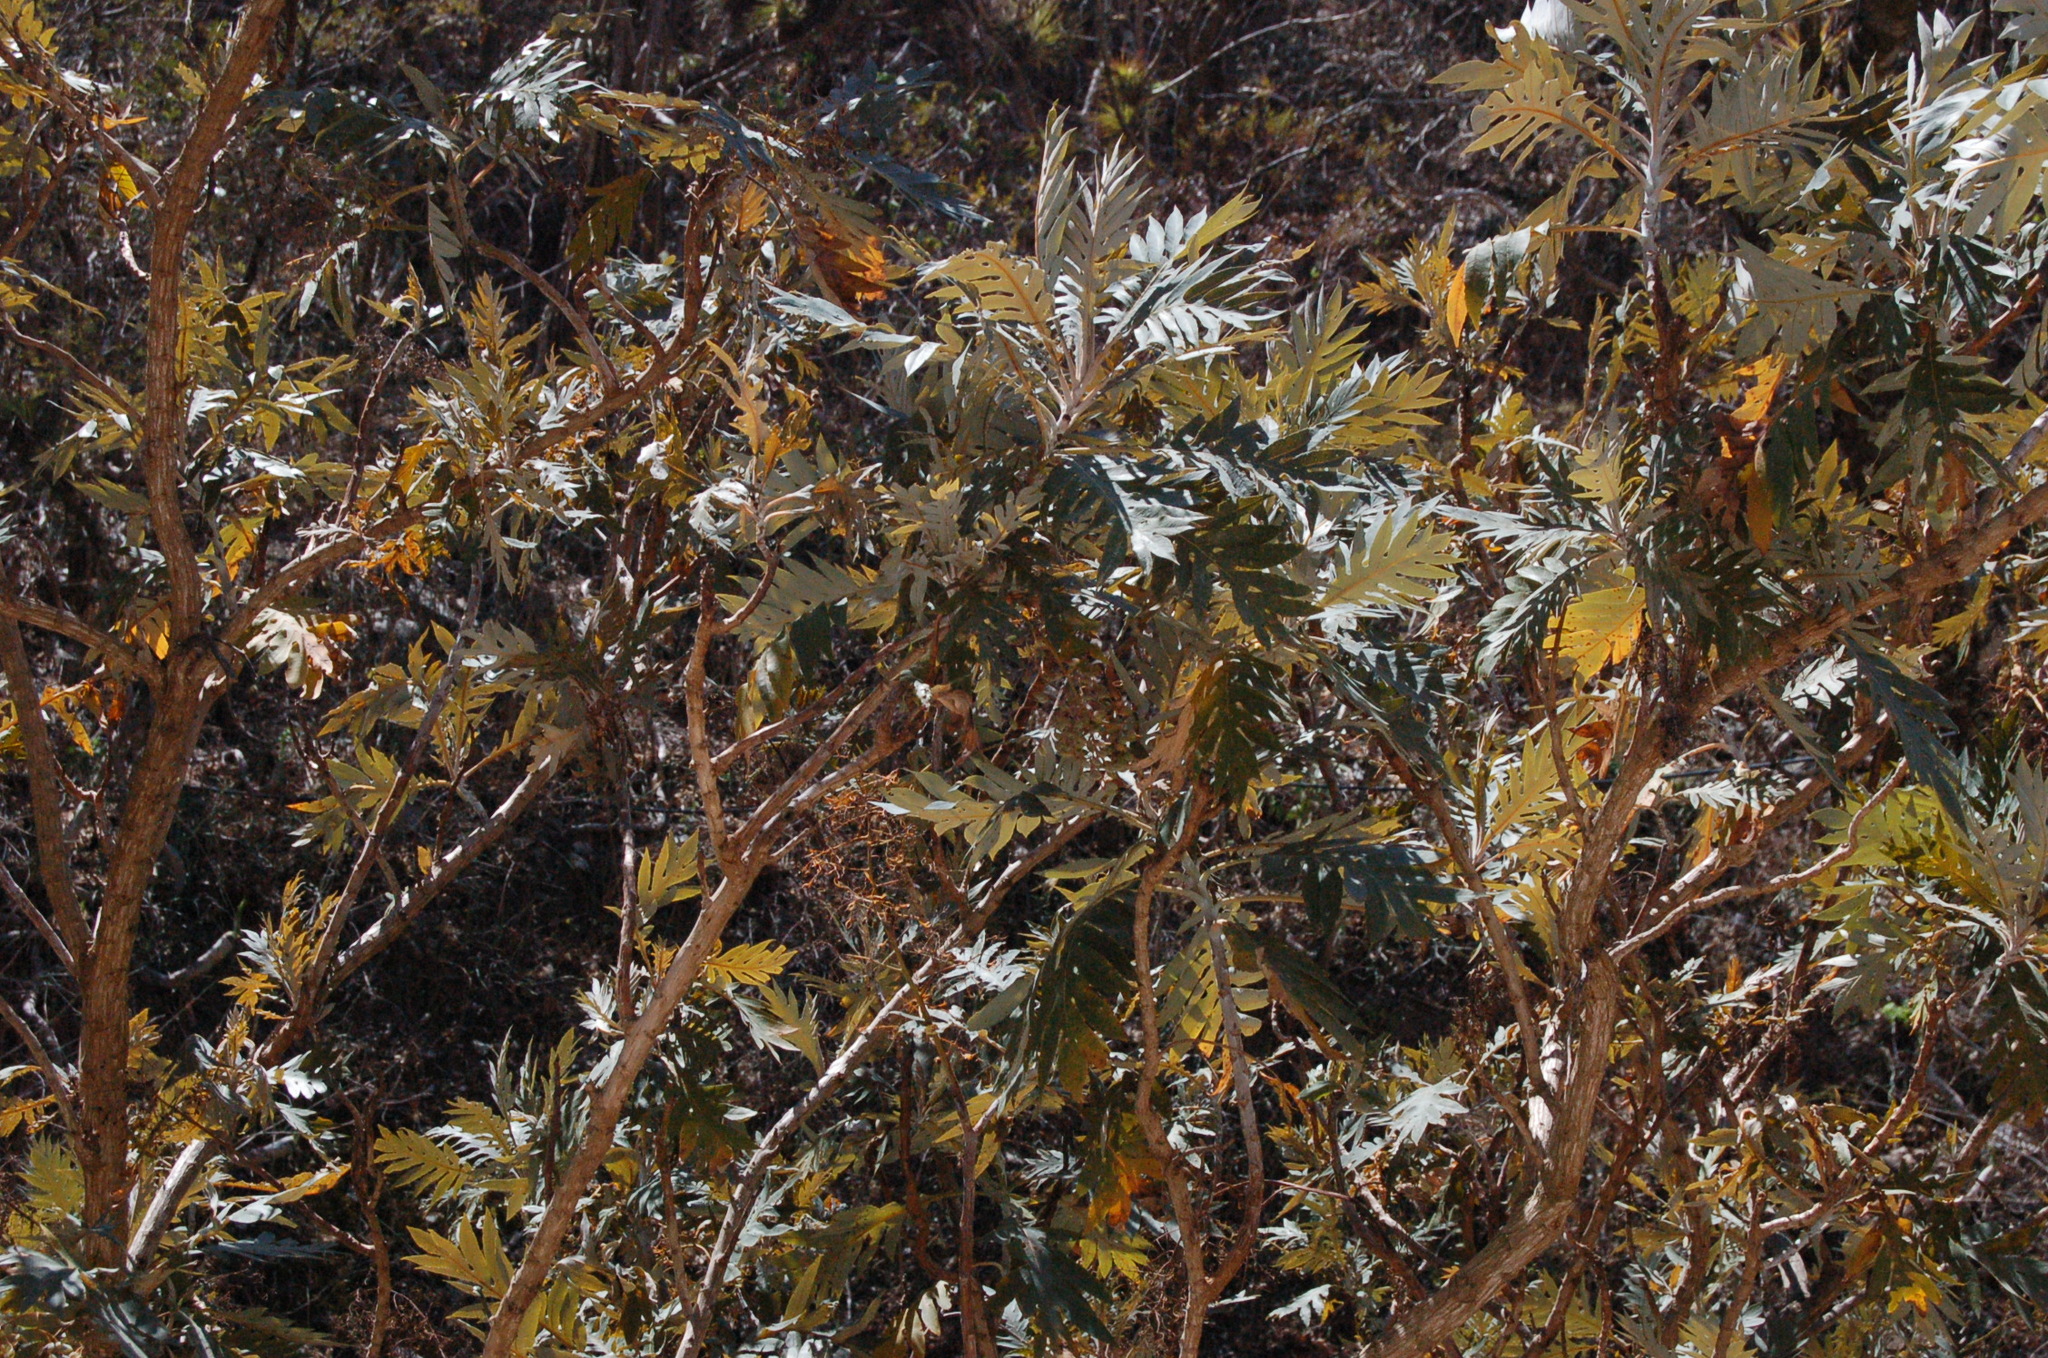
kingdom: Plantae
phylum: Tracheophyta
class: Magnoliopsida
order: Ranunculales
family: Papaveraceae
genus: Bocconia
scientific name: Bocconia arborea
